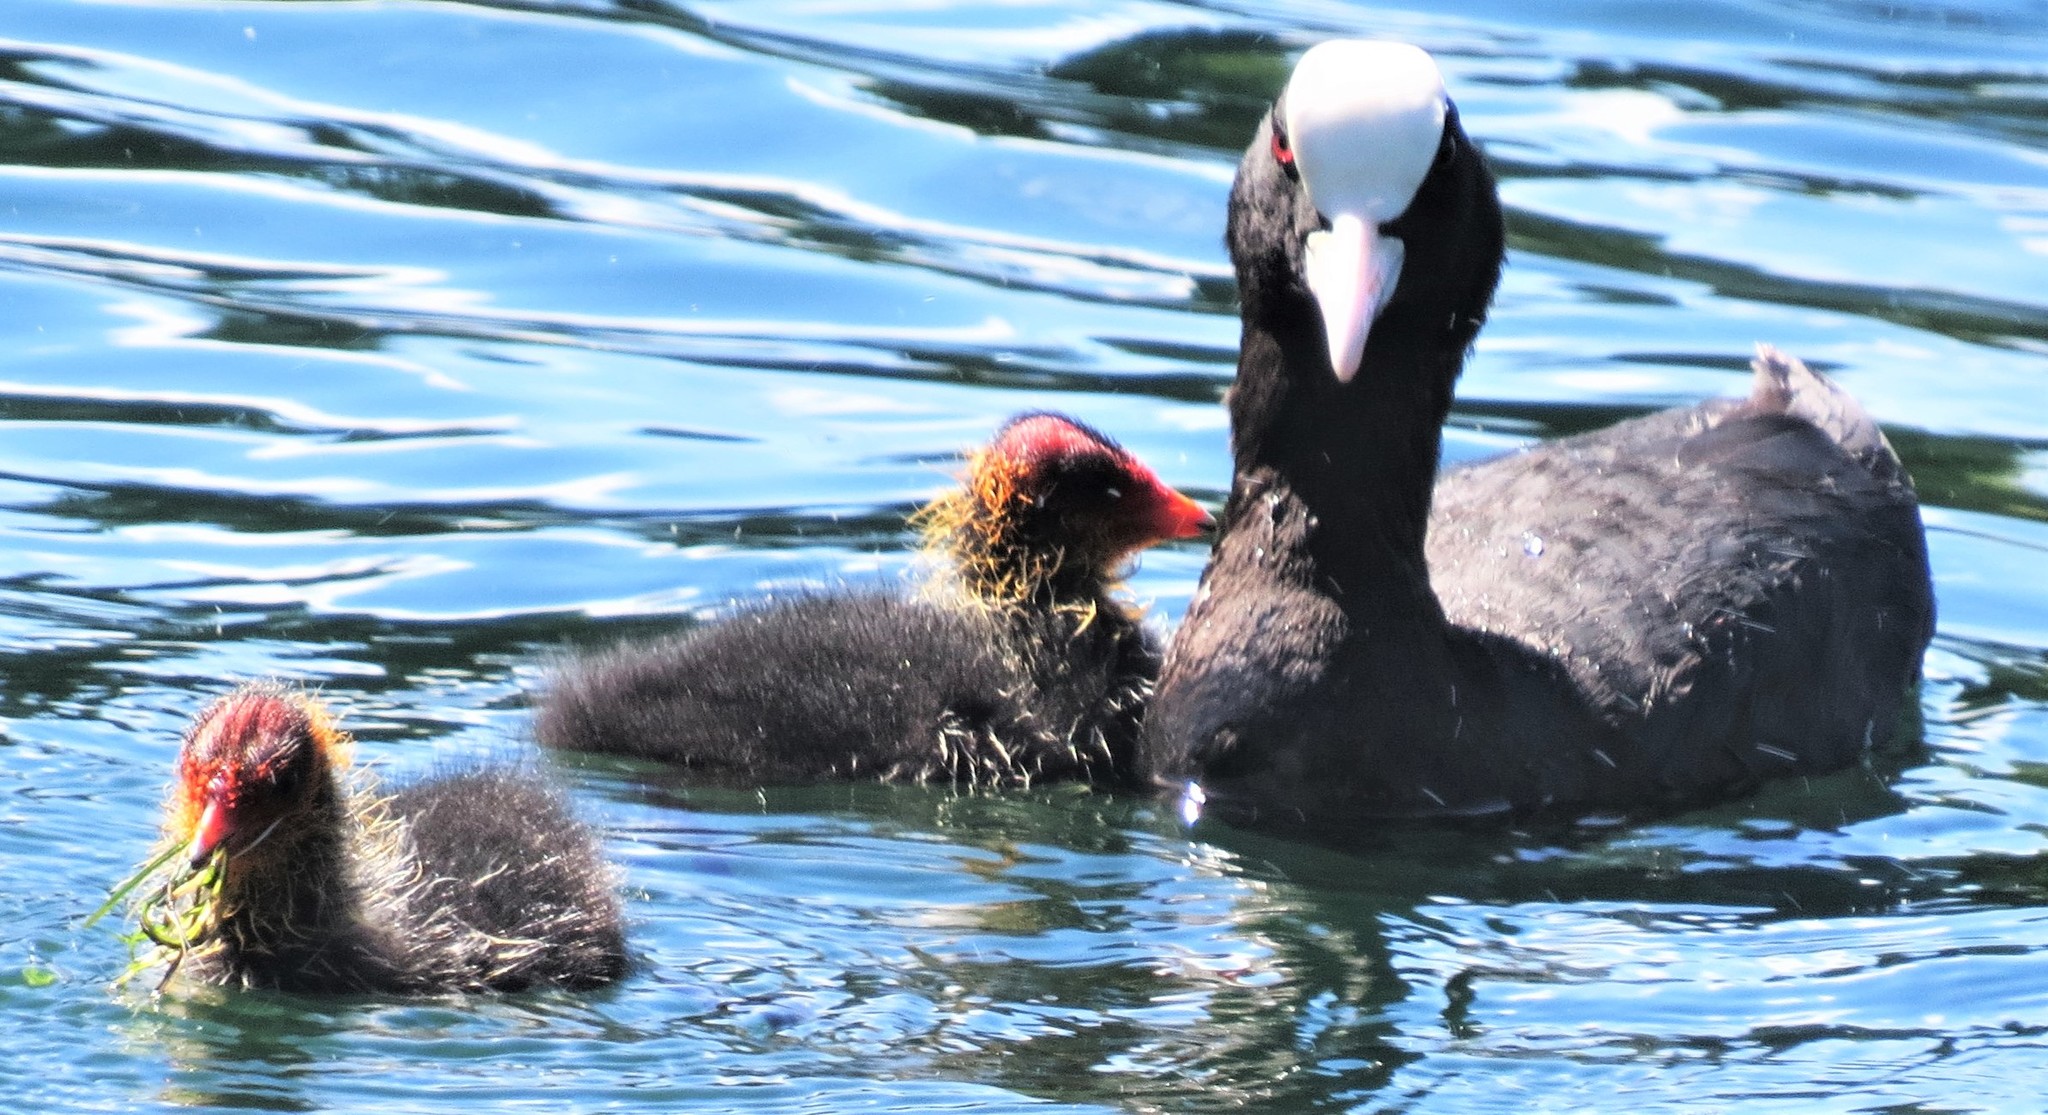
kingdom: Animalia
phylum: Chordata
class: Aves
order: Gruiformes
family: Rallidae
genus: Fulica
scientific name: Fulica atra
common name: Eurasian coot
